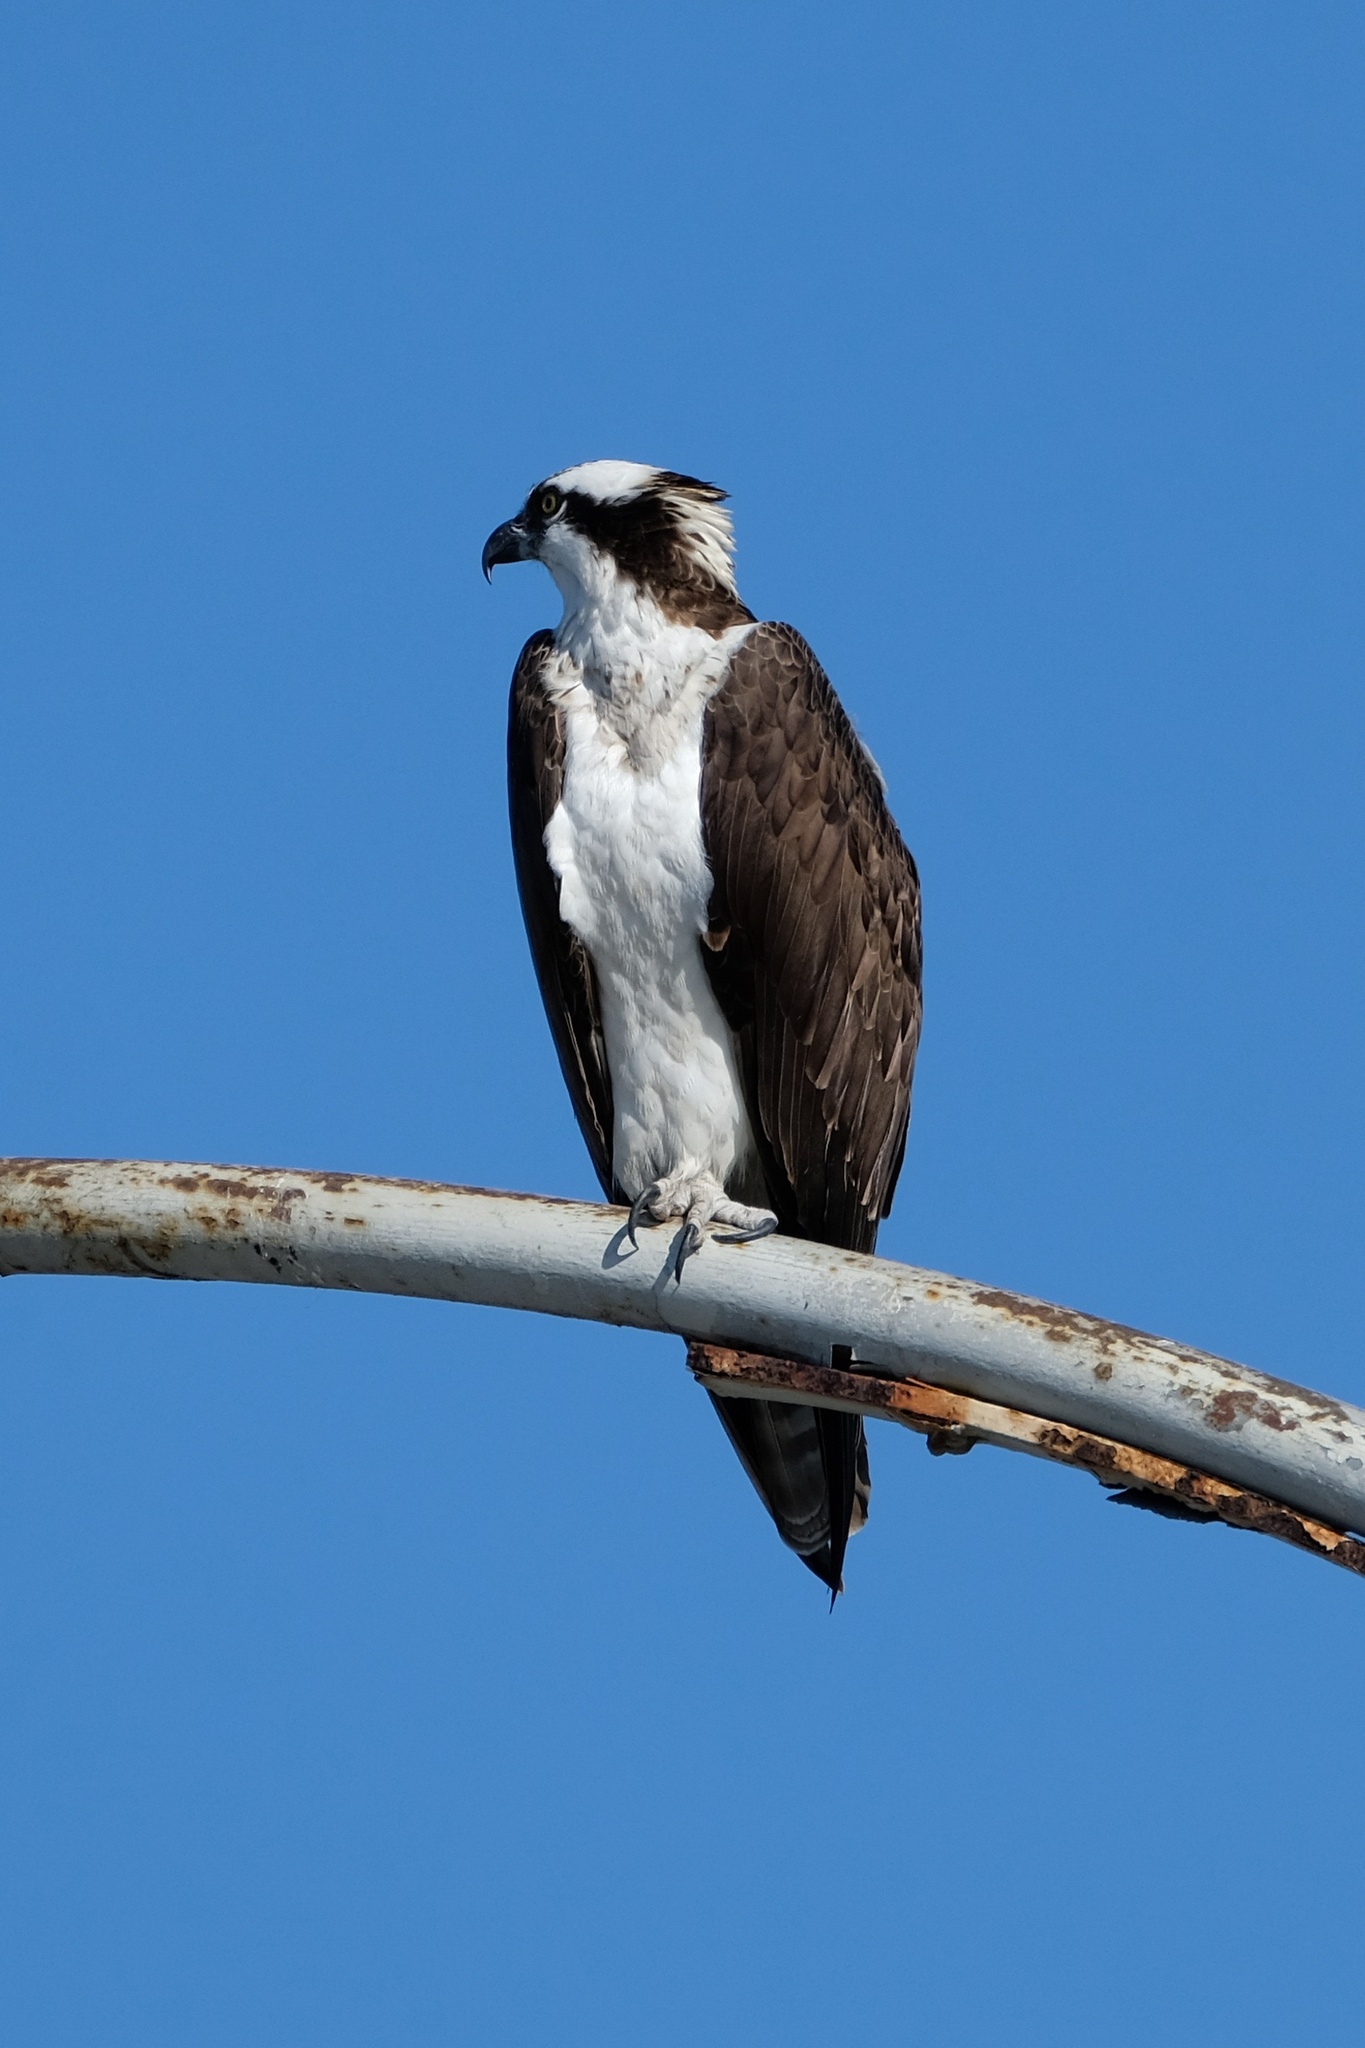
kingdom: Animalia
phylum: Chordata
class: Aves
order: Accipitriformes
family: Pandionidae
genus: Pandion
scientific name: Pandion haliaetus
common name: Osprey
